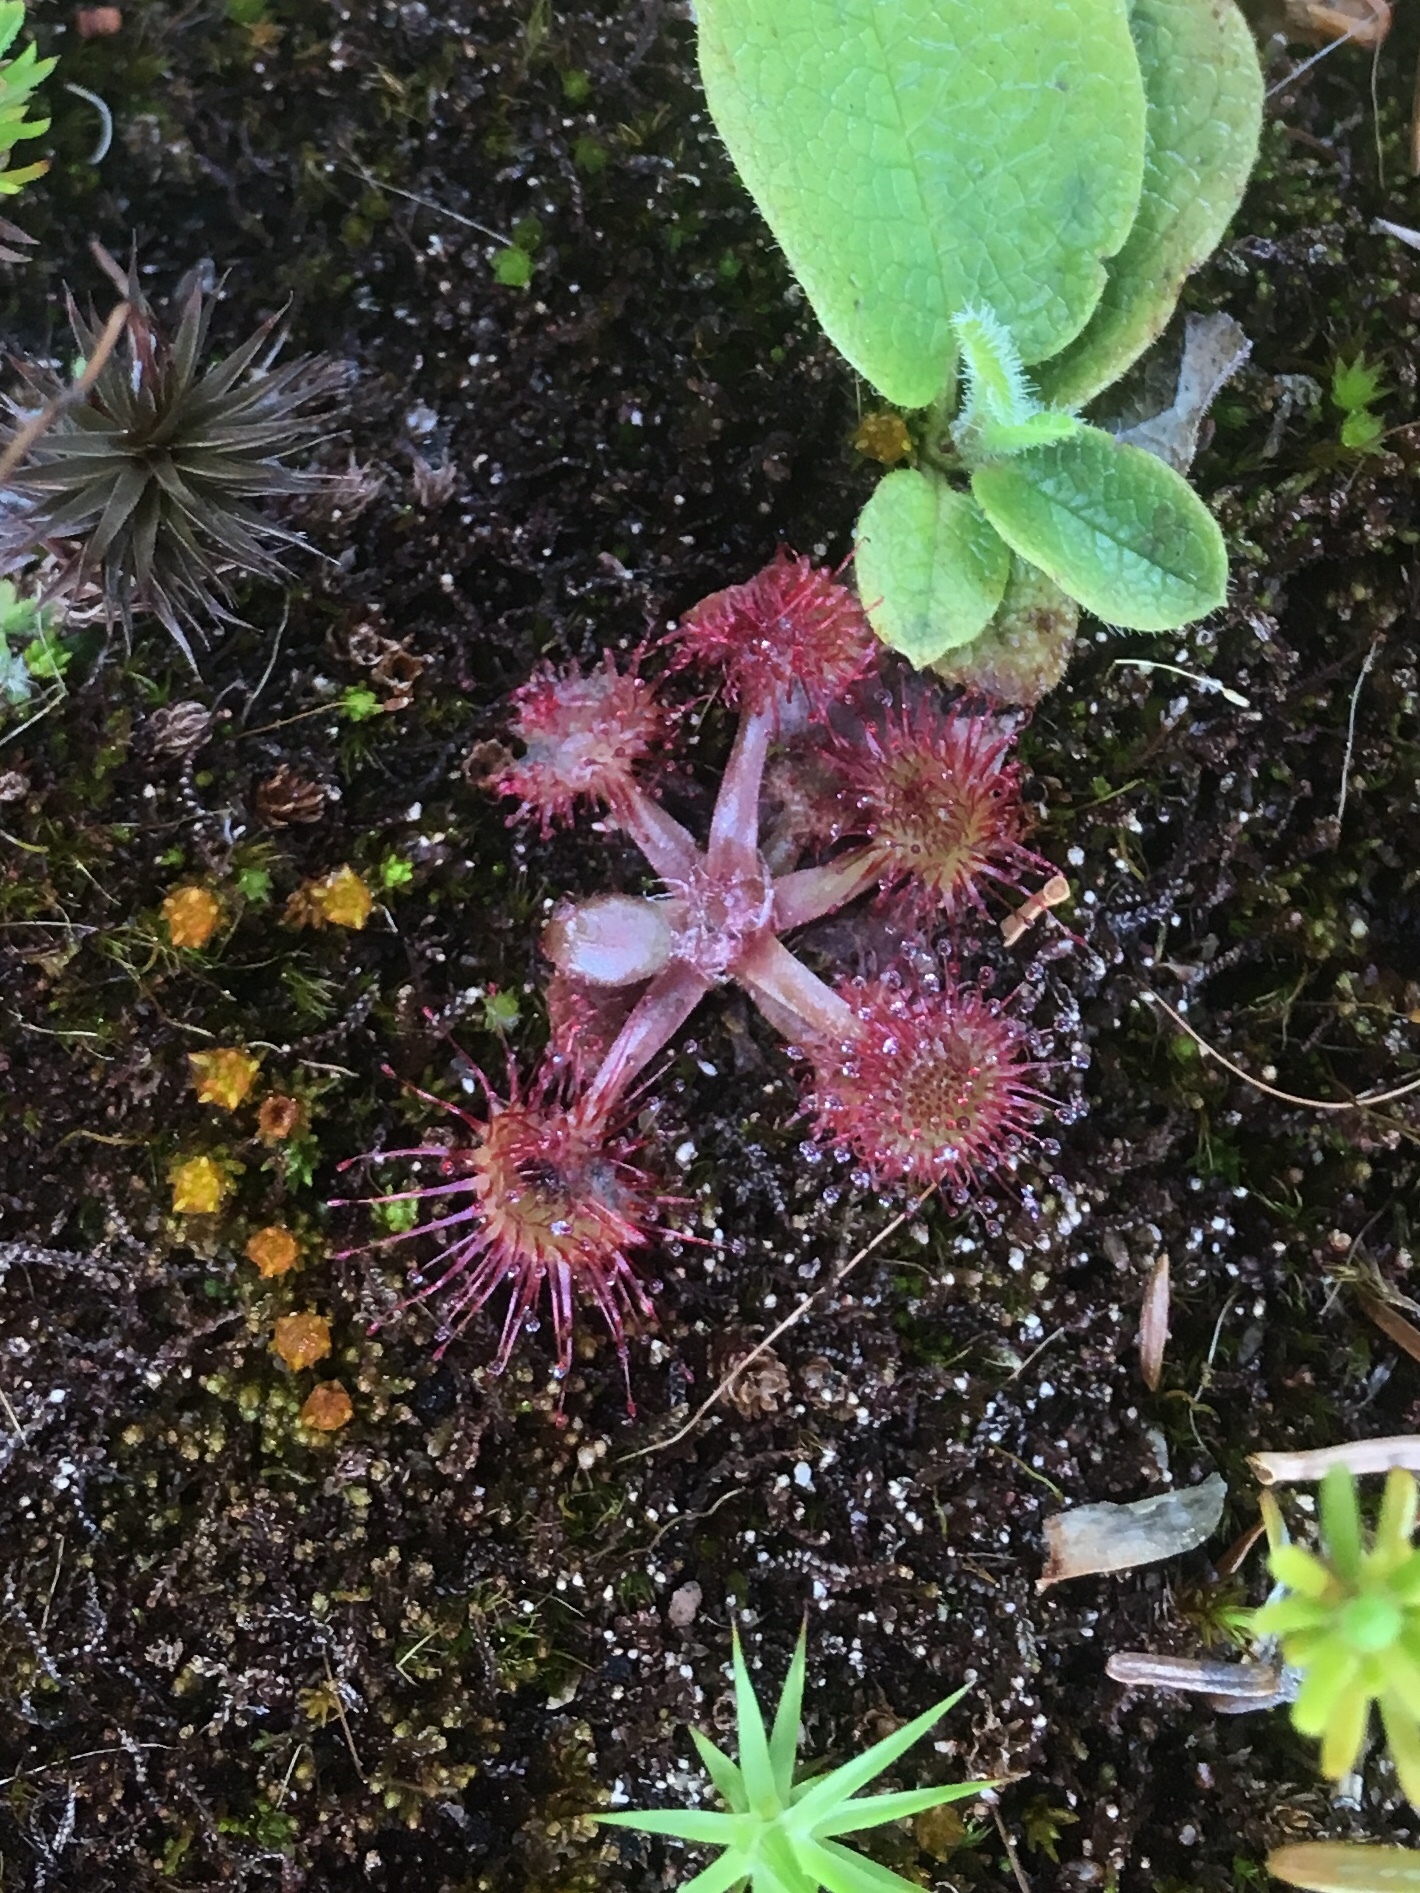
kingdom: Plantae
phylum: Tracheophyta
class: Magnoliopsida
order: Caryophyllales
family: Droseraceae
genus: Drosera
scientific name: Drosera rotundifolia
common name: Round-leaved sundew
